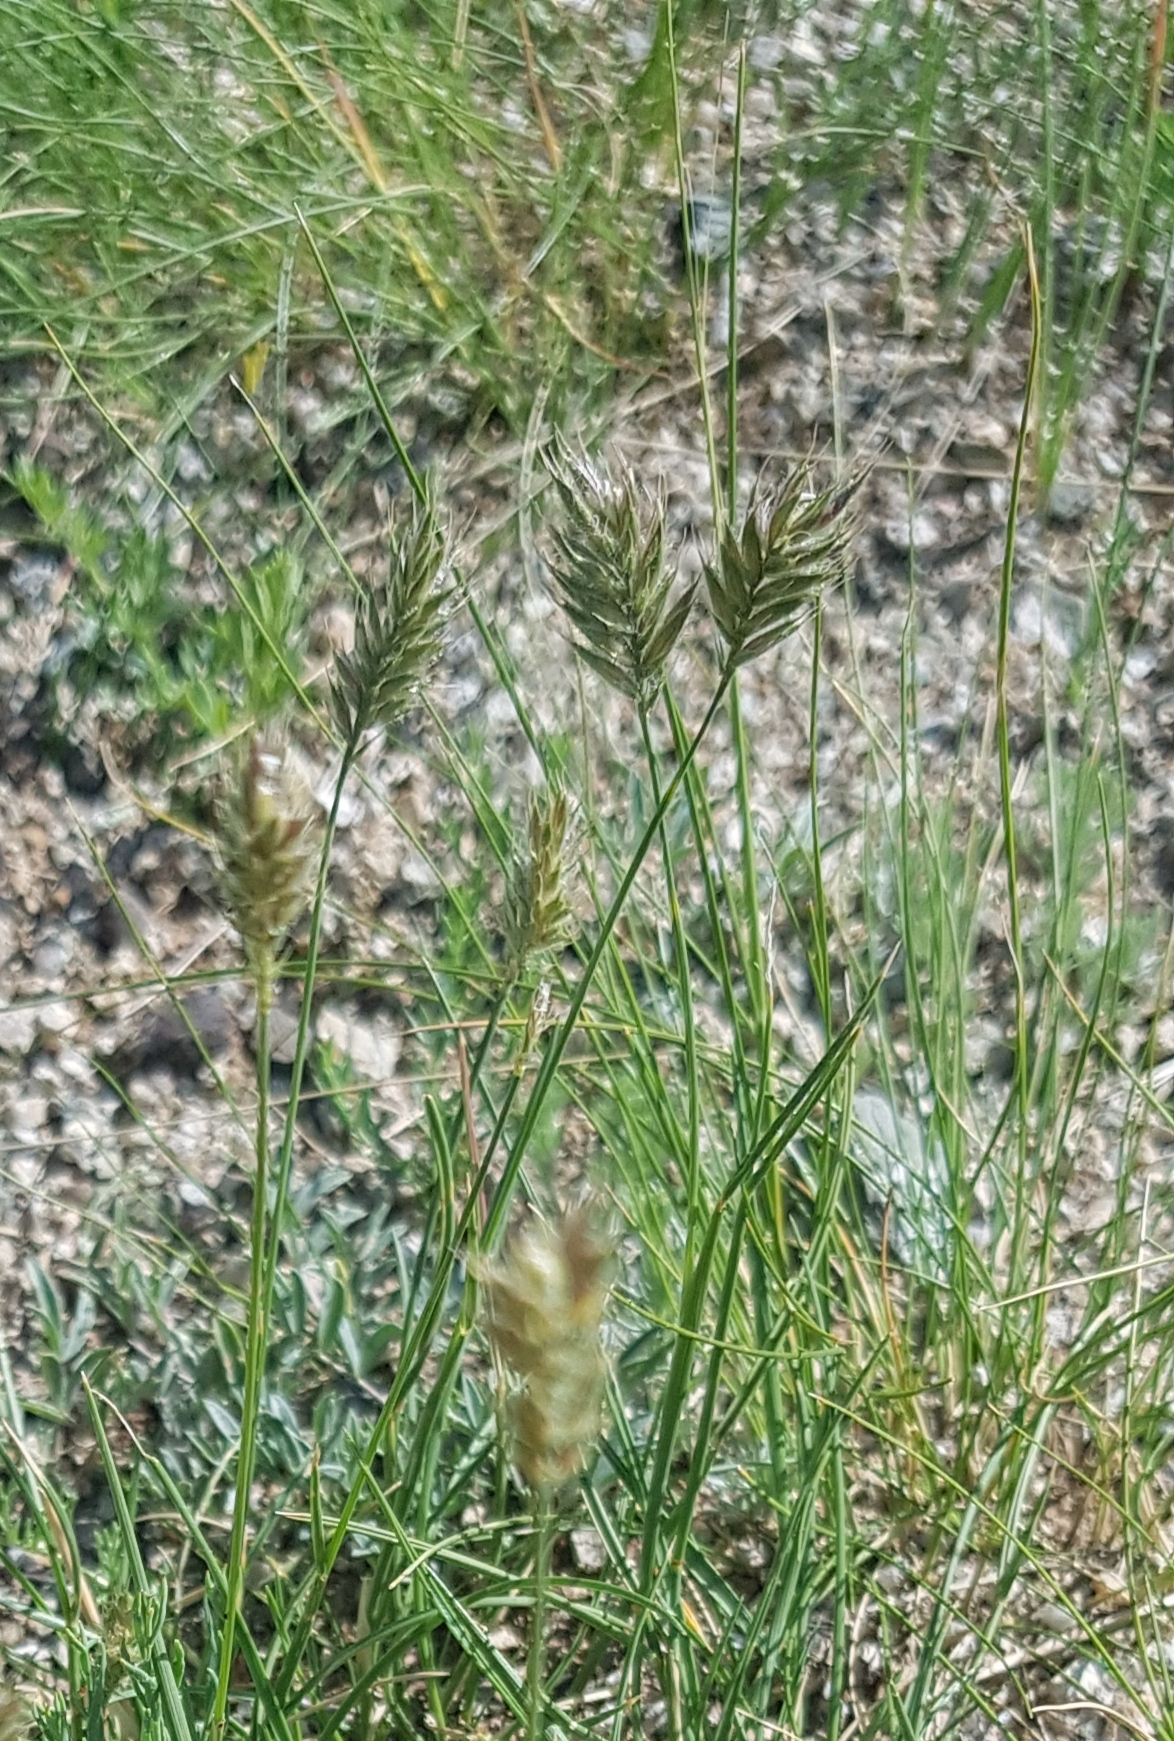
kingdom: Plantae
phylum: Tracheophyta
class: Liliopsida
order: Poales
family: Poaceae
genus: Agropyron
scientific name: Agropyron cristatum
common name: Crested wheatgrass
